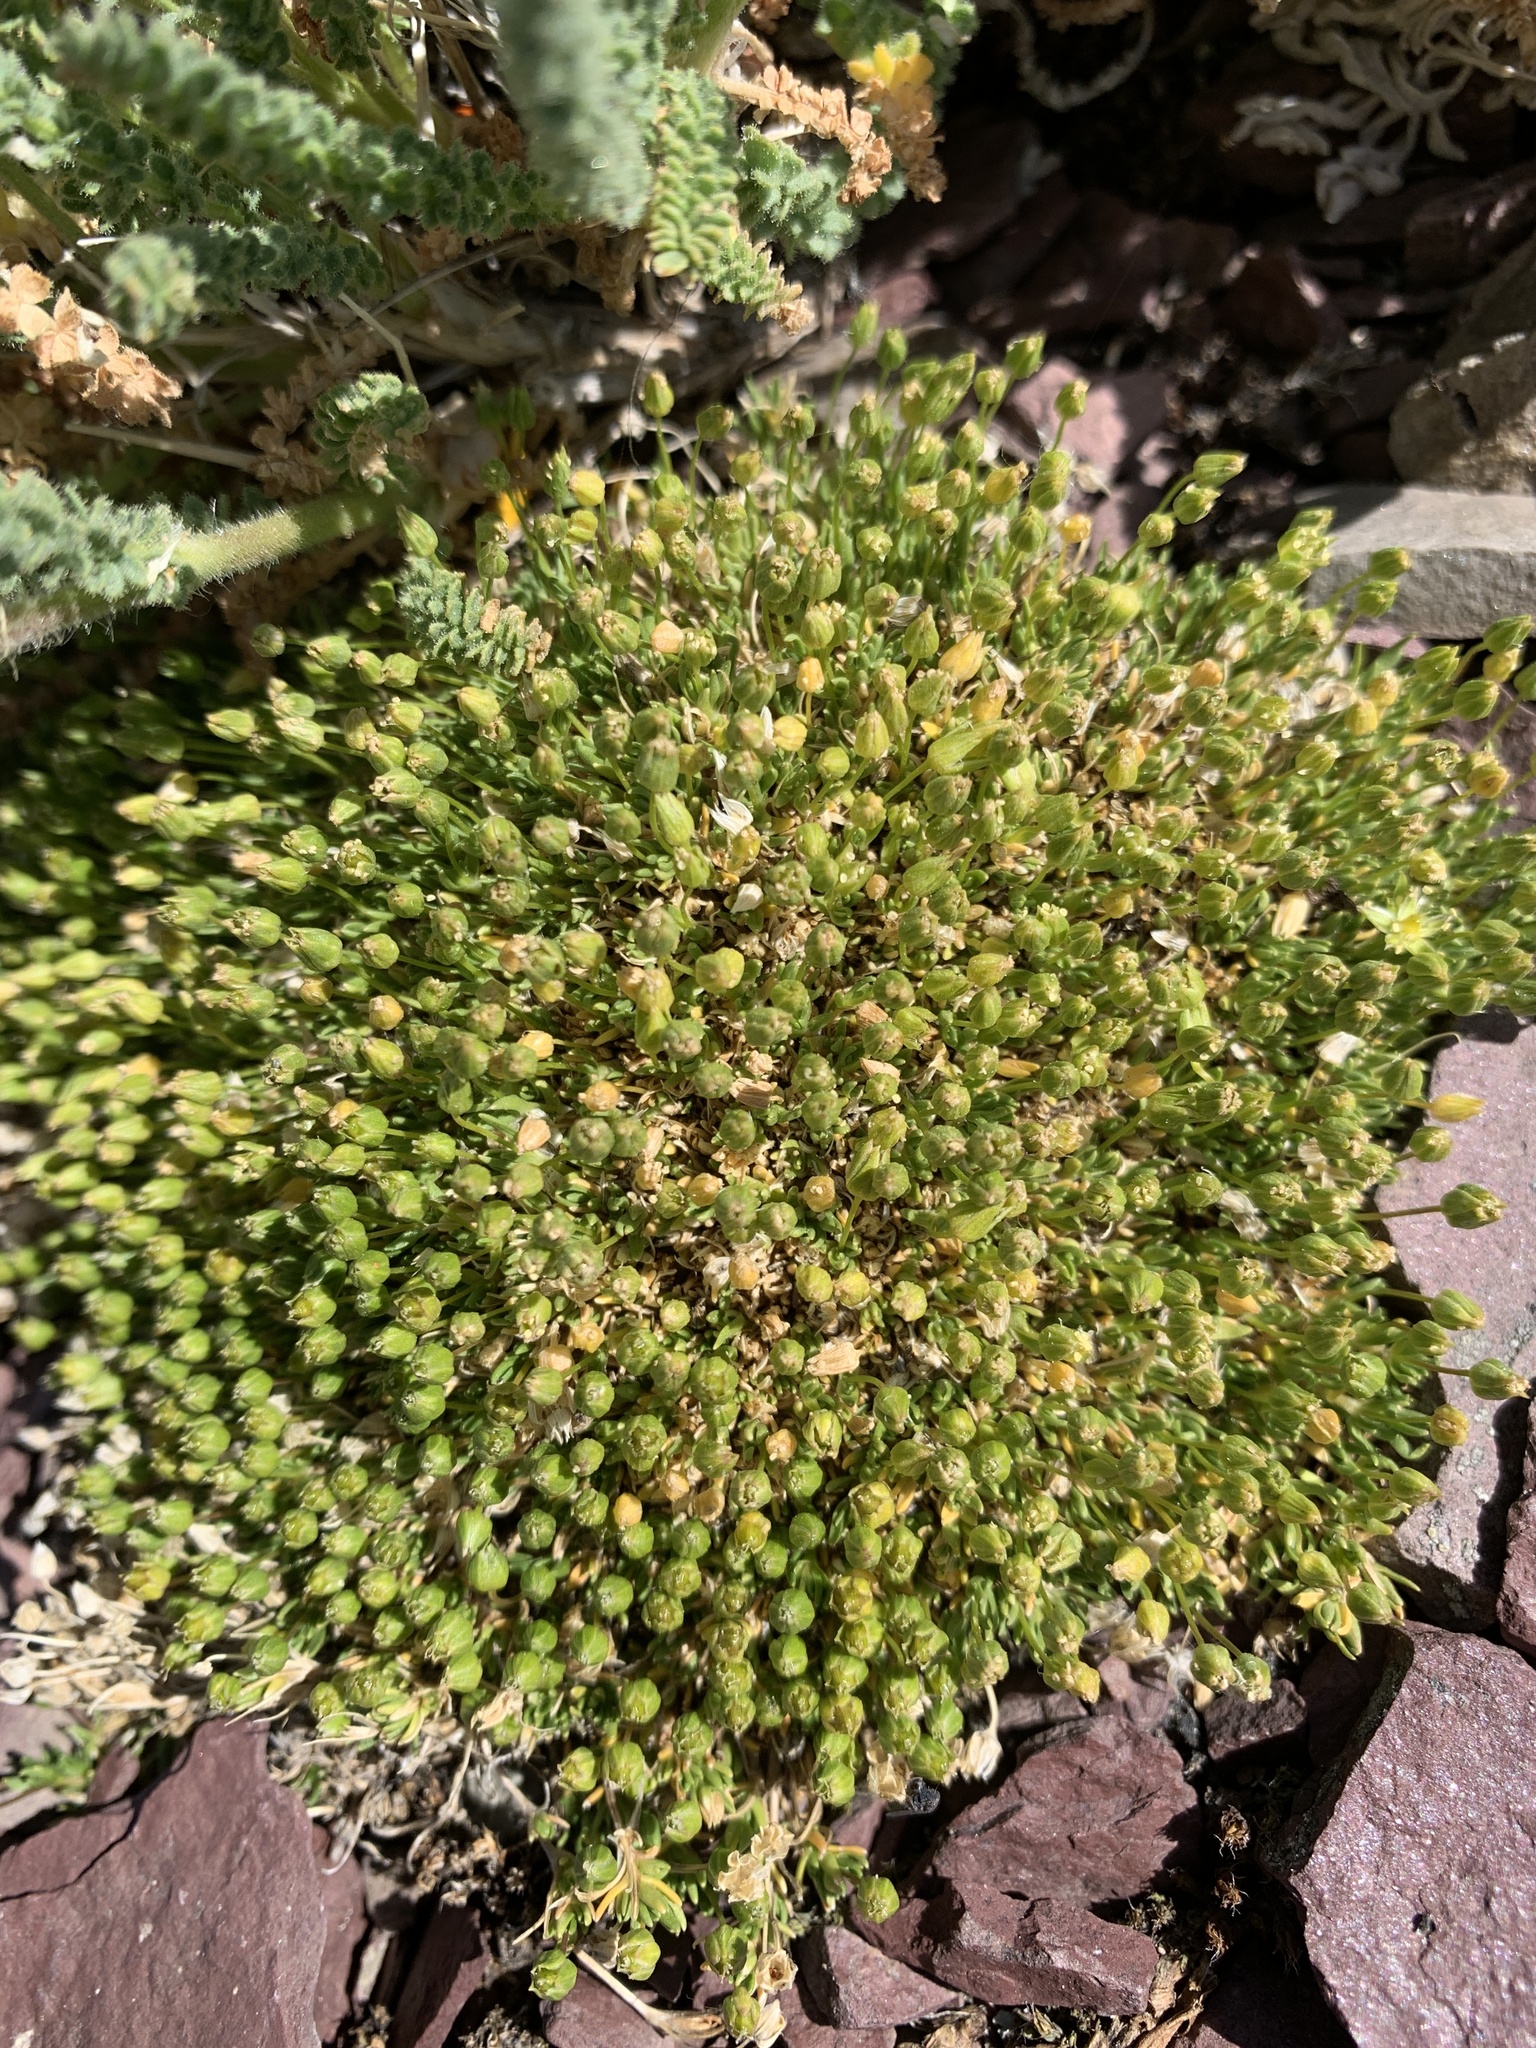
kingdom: Plantae
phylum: Tracheophyta
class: Magnoliopsida
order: Caryophyllales
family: Caryophyllaceae
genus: Sabulina
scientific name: Sabulina austromontana
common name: Columbia stitchwort
